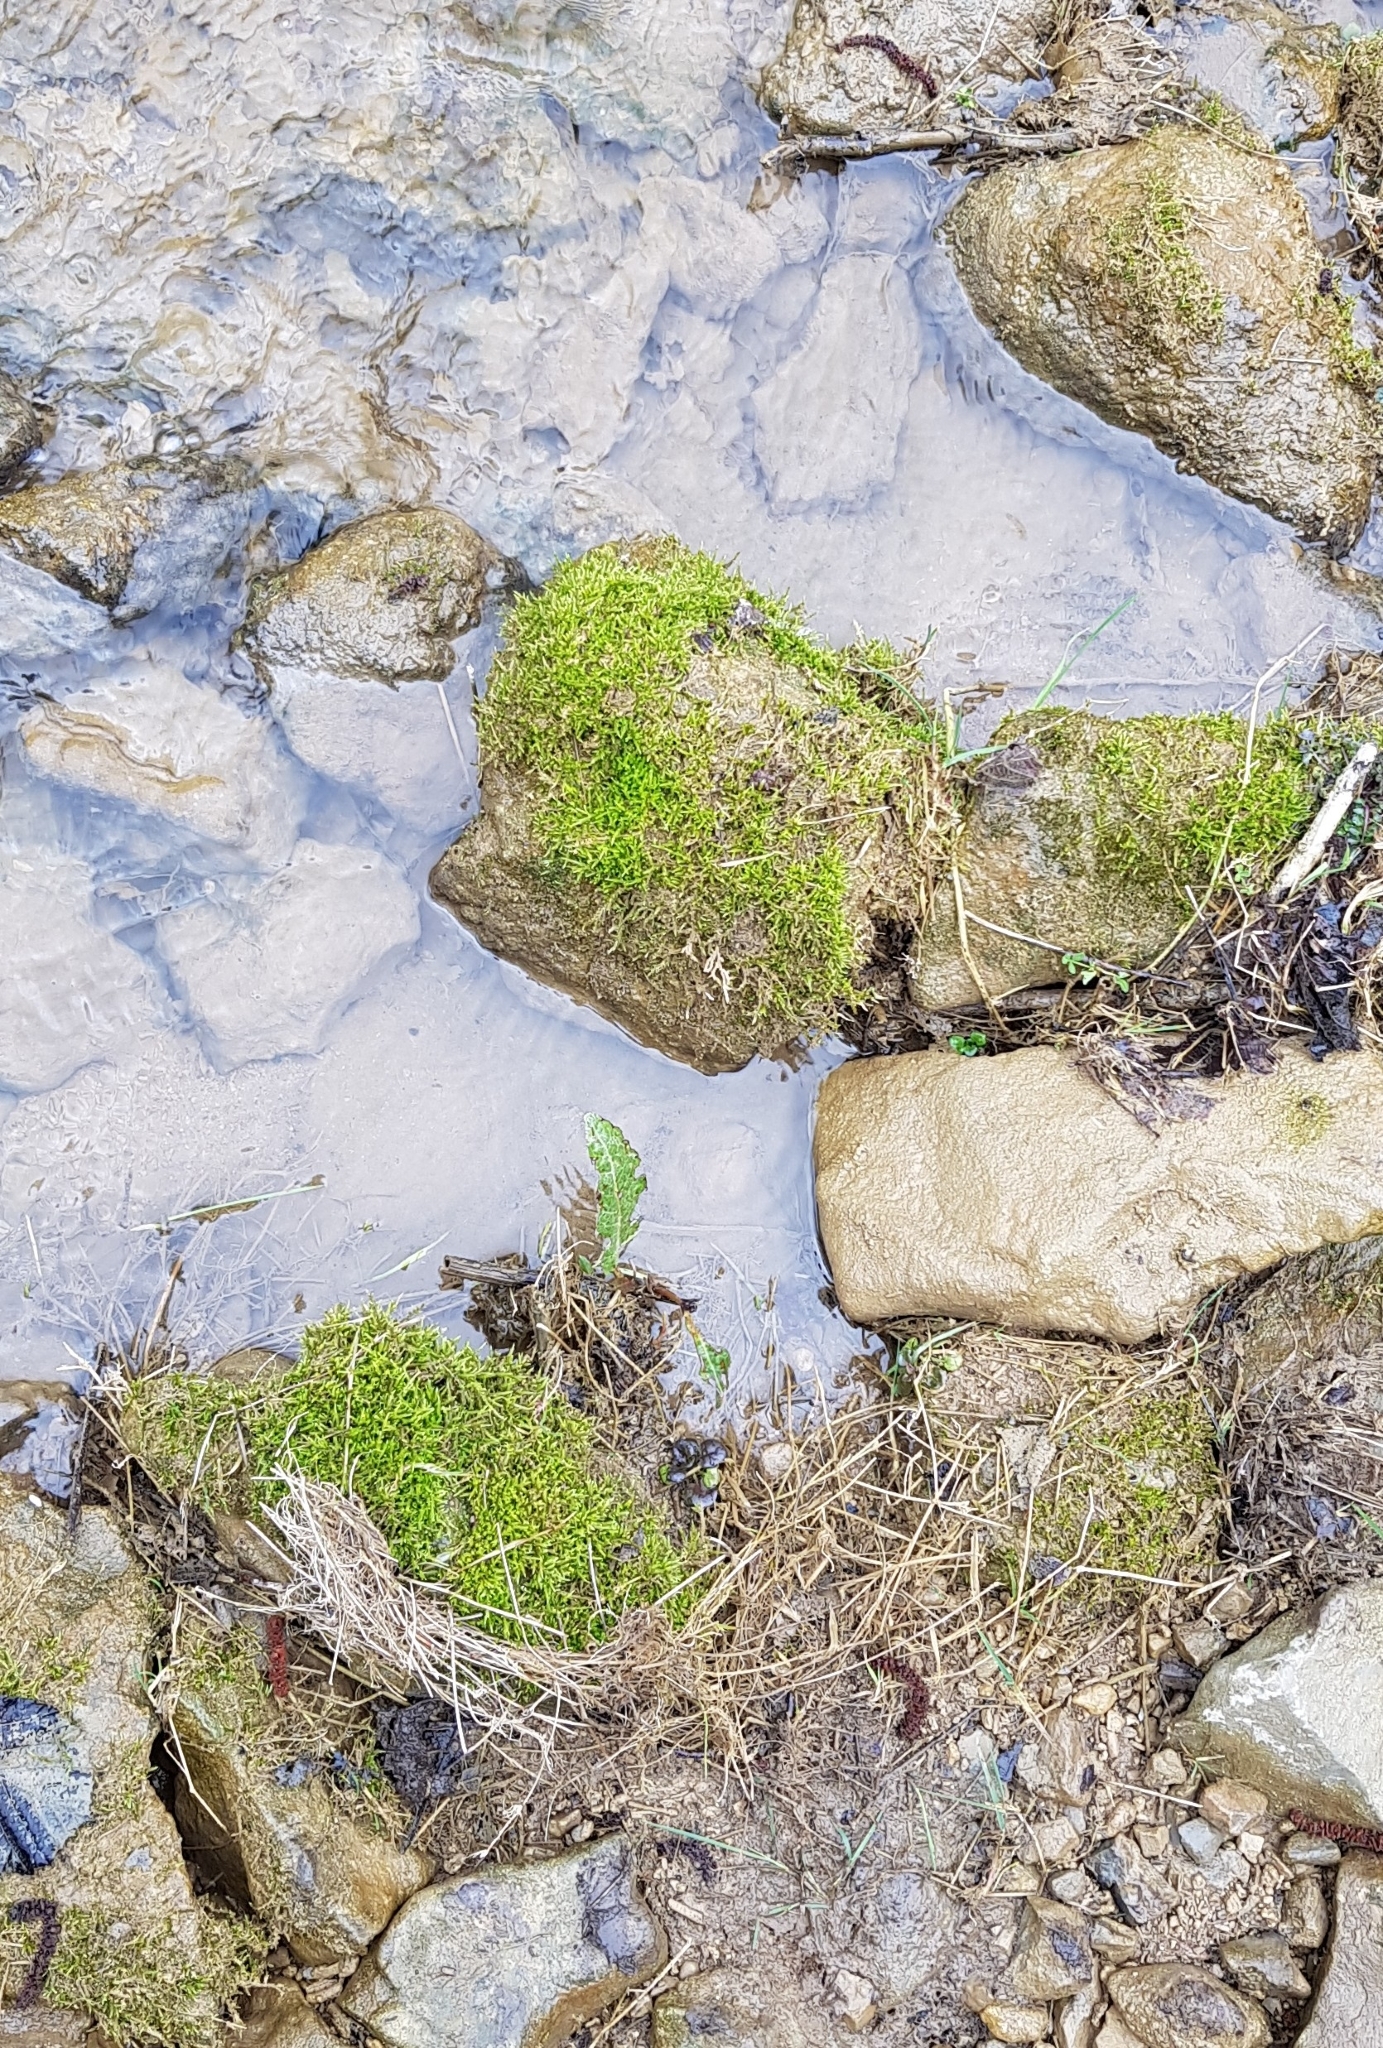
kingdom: Plantae
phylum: Bryophyta
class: Bryopsida
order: Hypnales
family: Amblystegiaceae
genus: Cratoneuron
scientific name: Cratoneuron filicinum
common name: Fern-leaved hook moss
